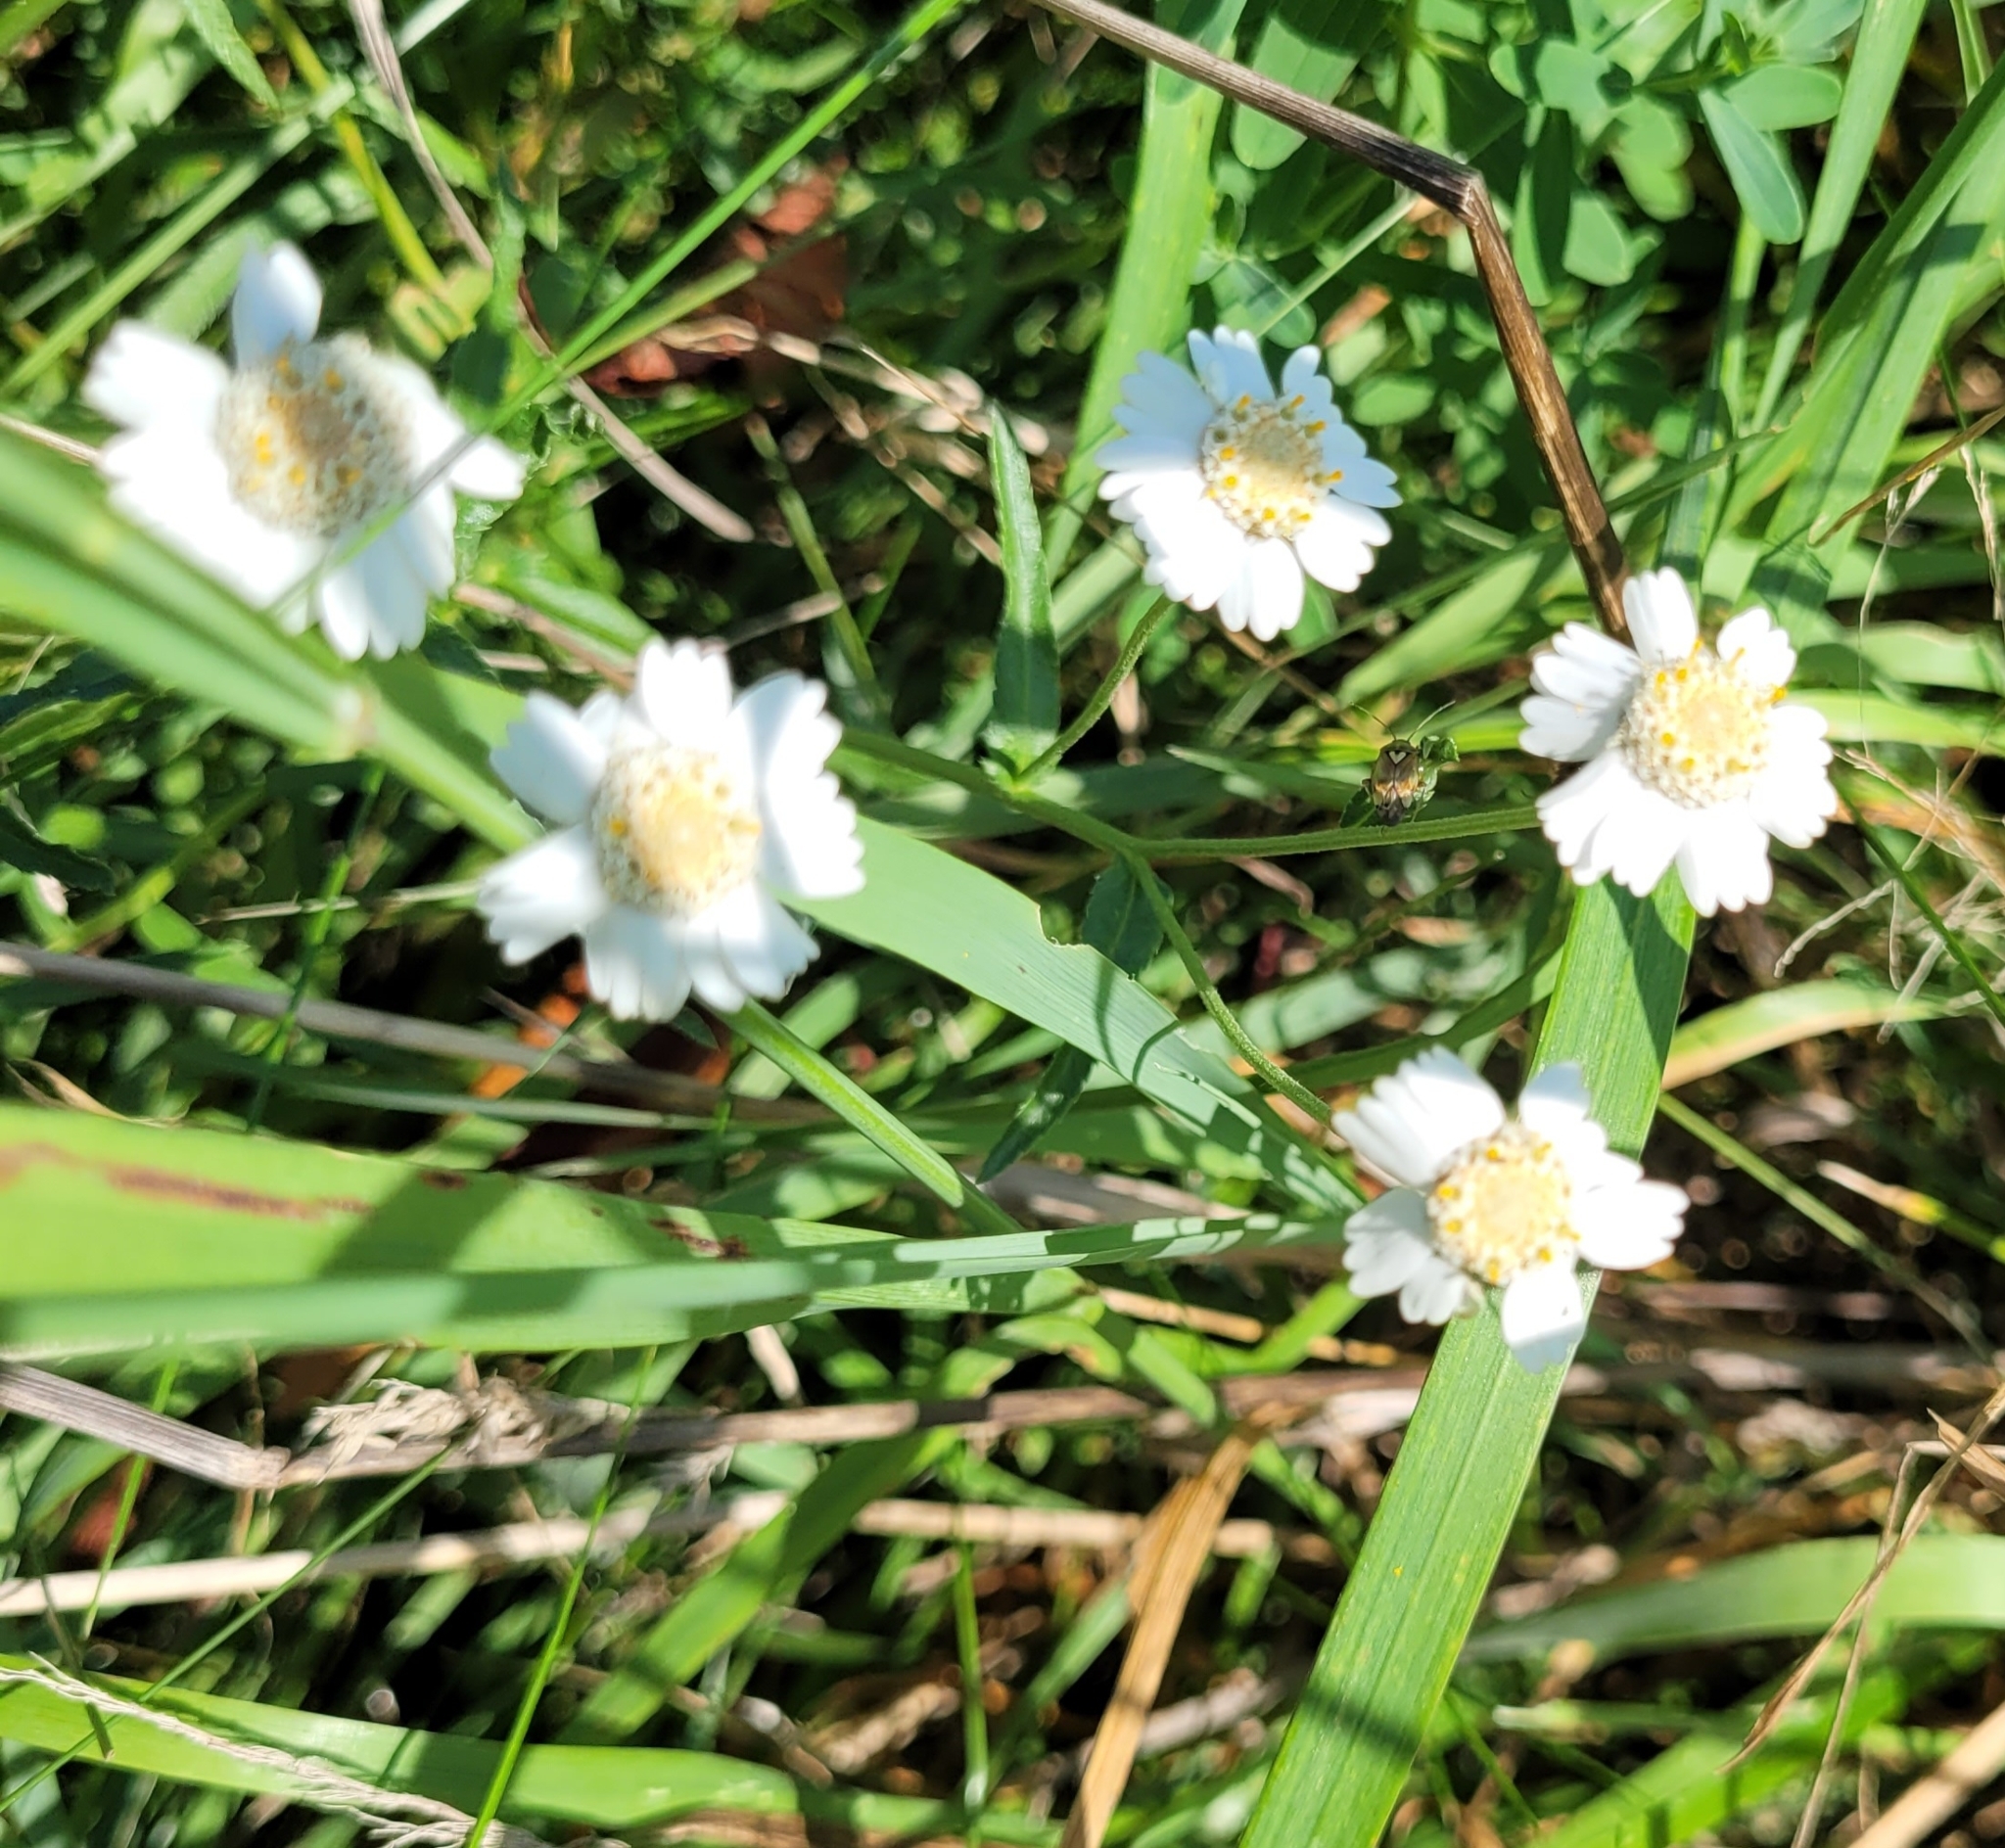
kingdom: Plantae
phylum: Tracheophyta
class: Magnoliopsida
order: Asterales
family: Asteraceae
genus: Achillea
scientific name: Achillea ptarmica
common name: Sneezeweed
